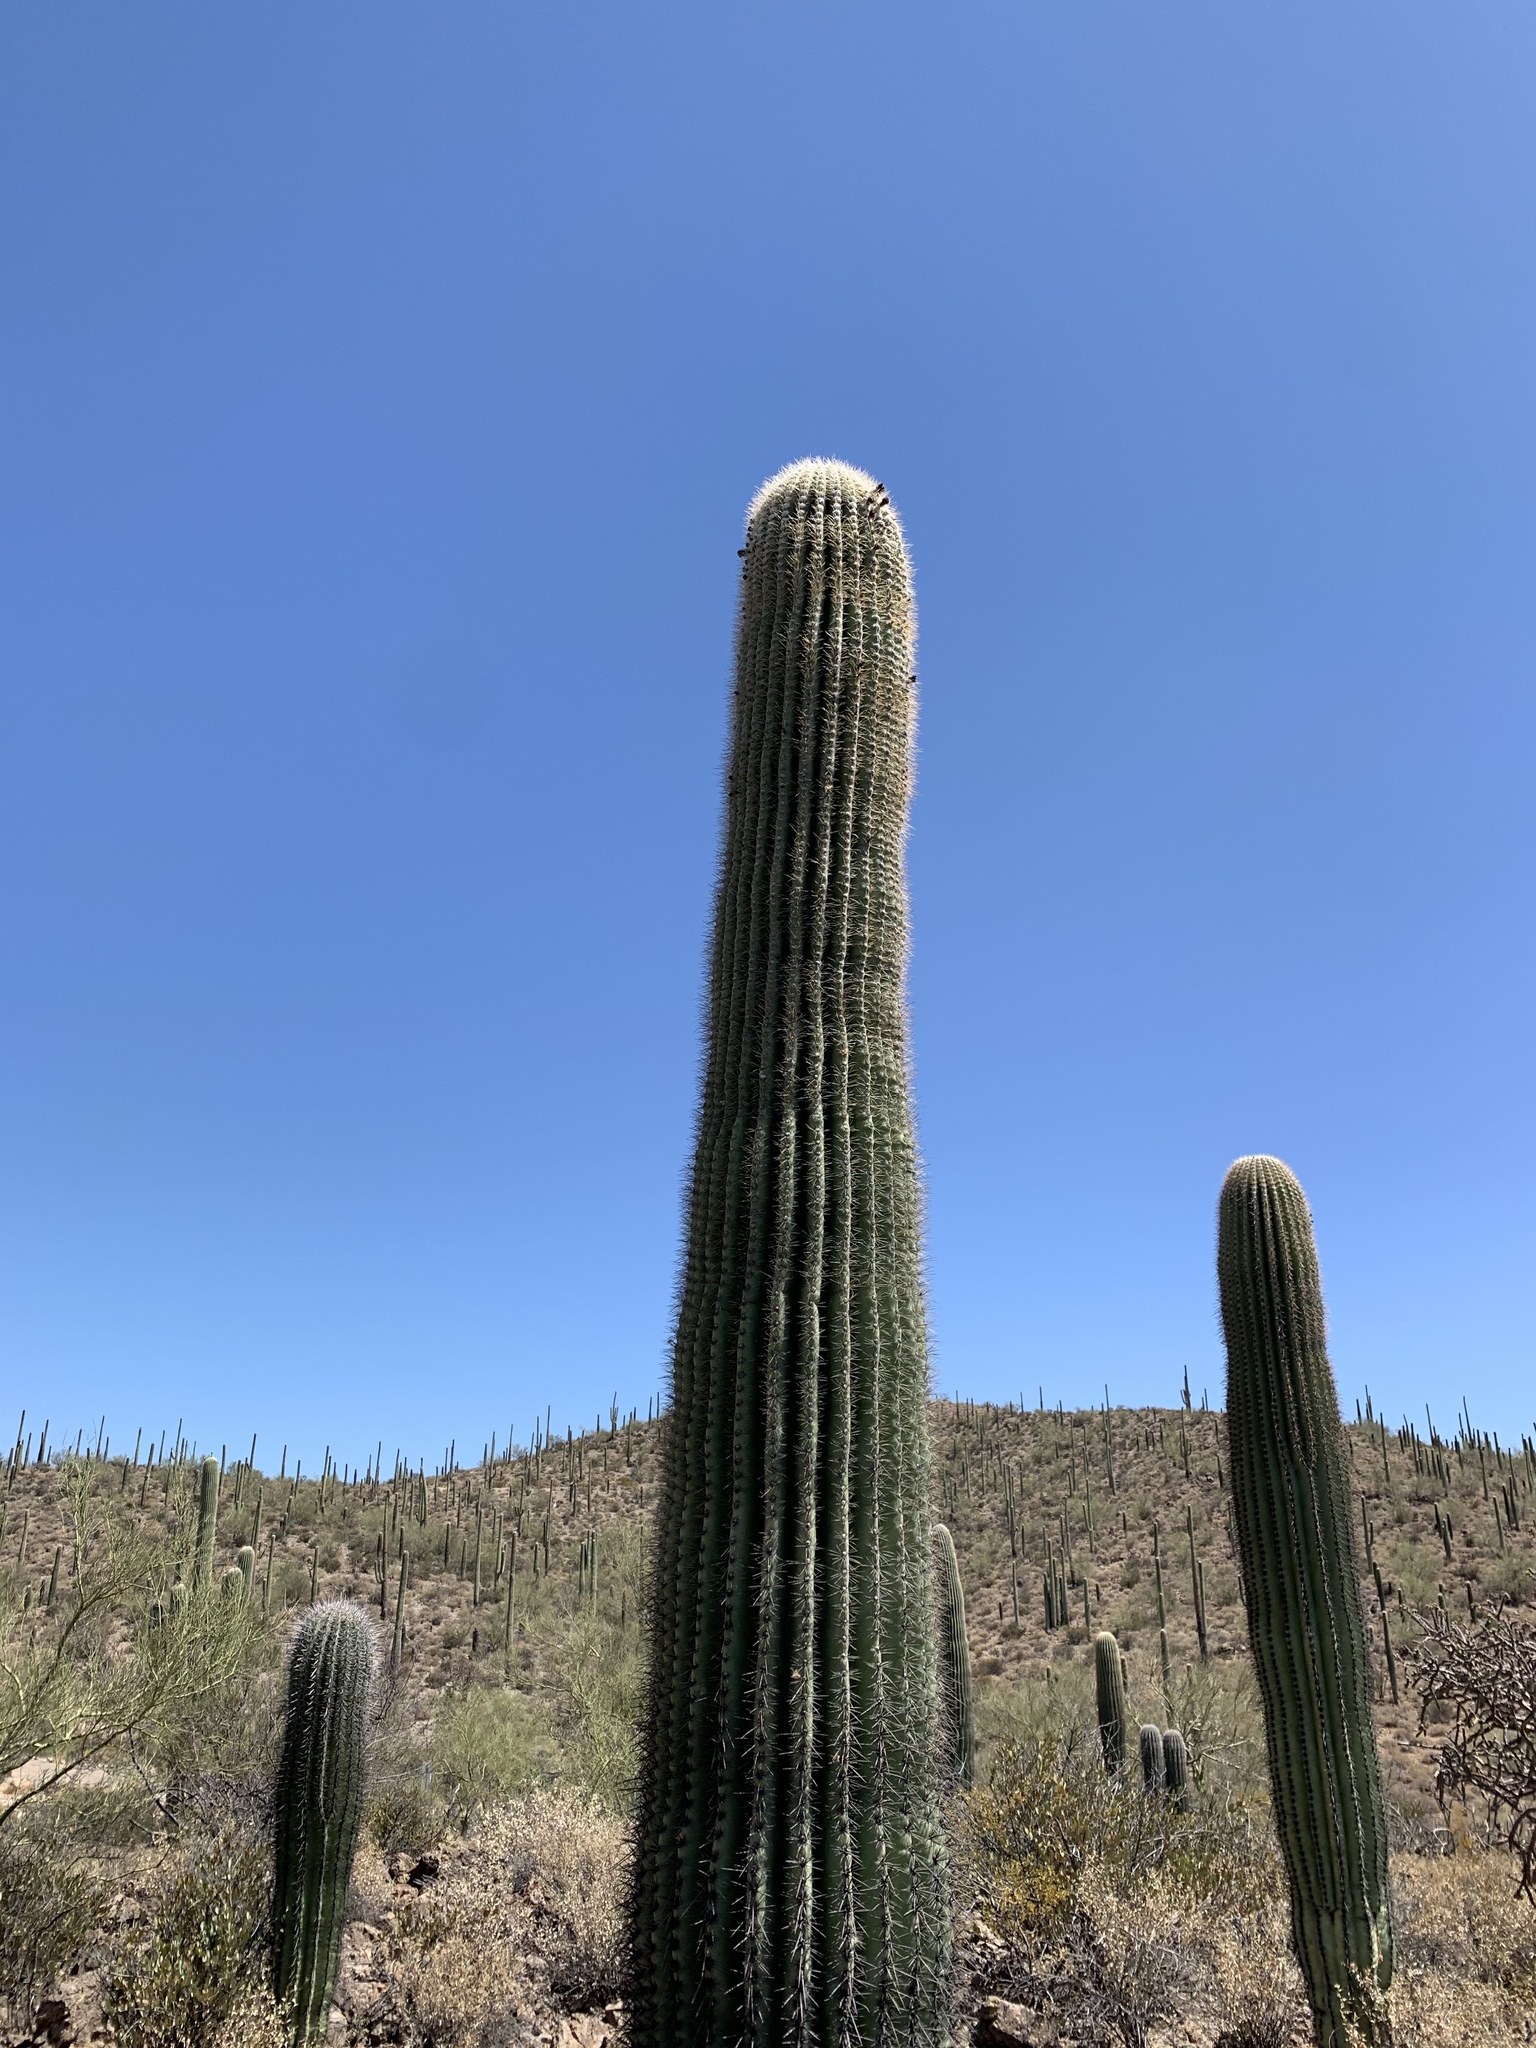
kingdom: Plantae
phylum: Tracheophyta
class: Magnoliopsida
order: Caryophyllales
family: Cactaceae
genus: Carnegiea
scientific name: Carnegiea gigantea
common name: Saguaro
